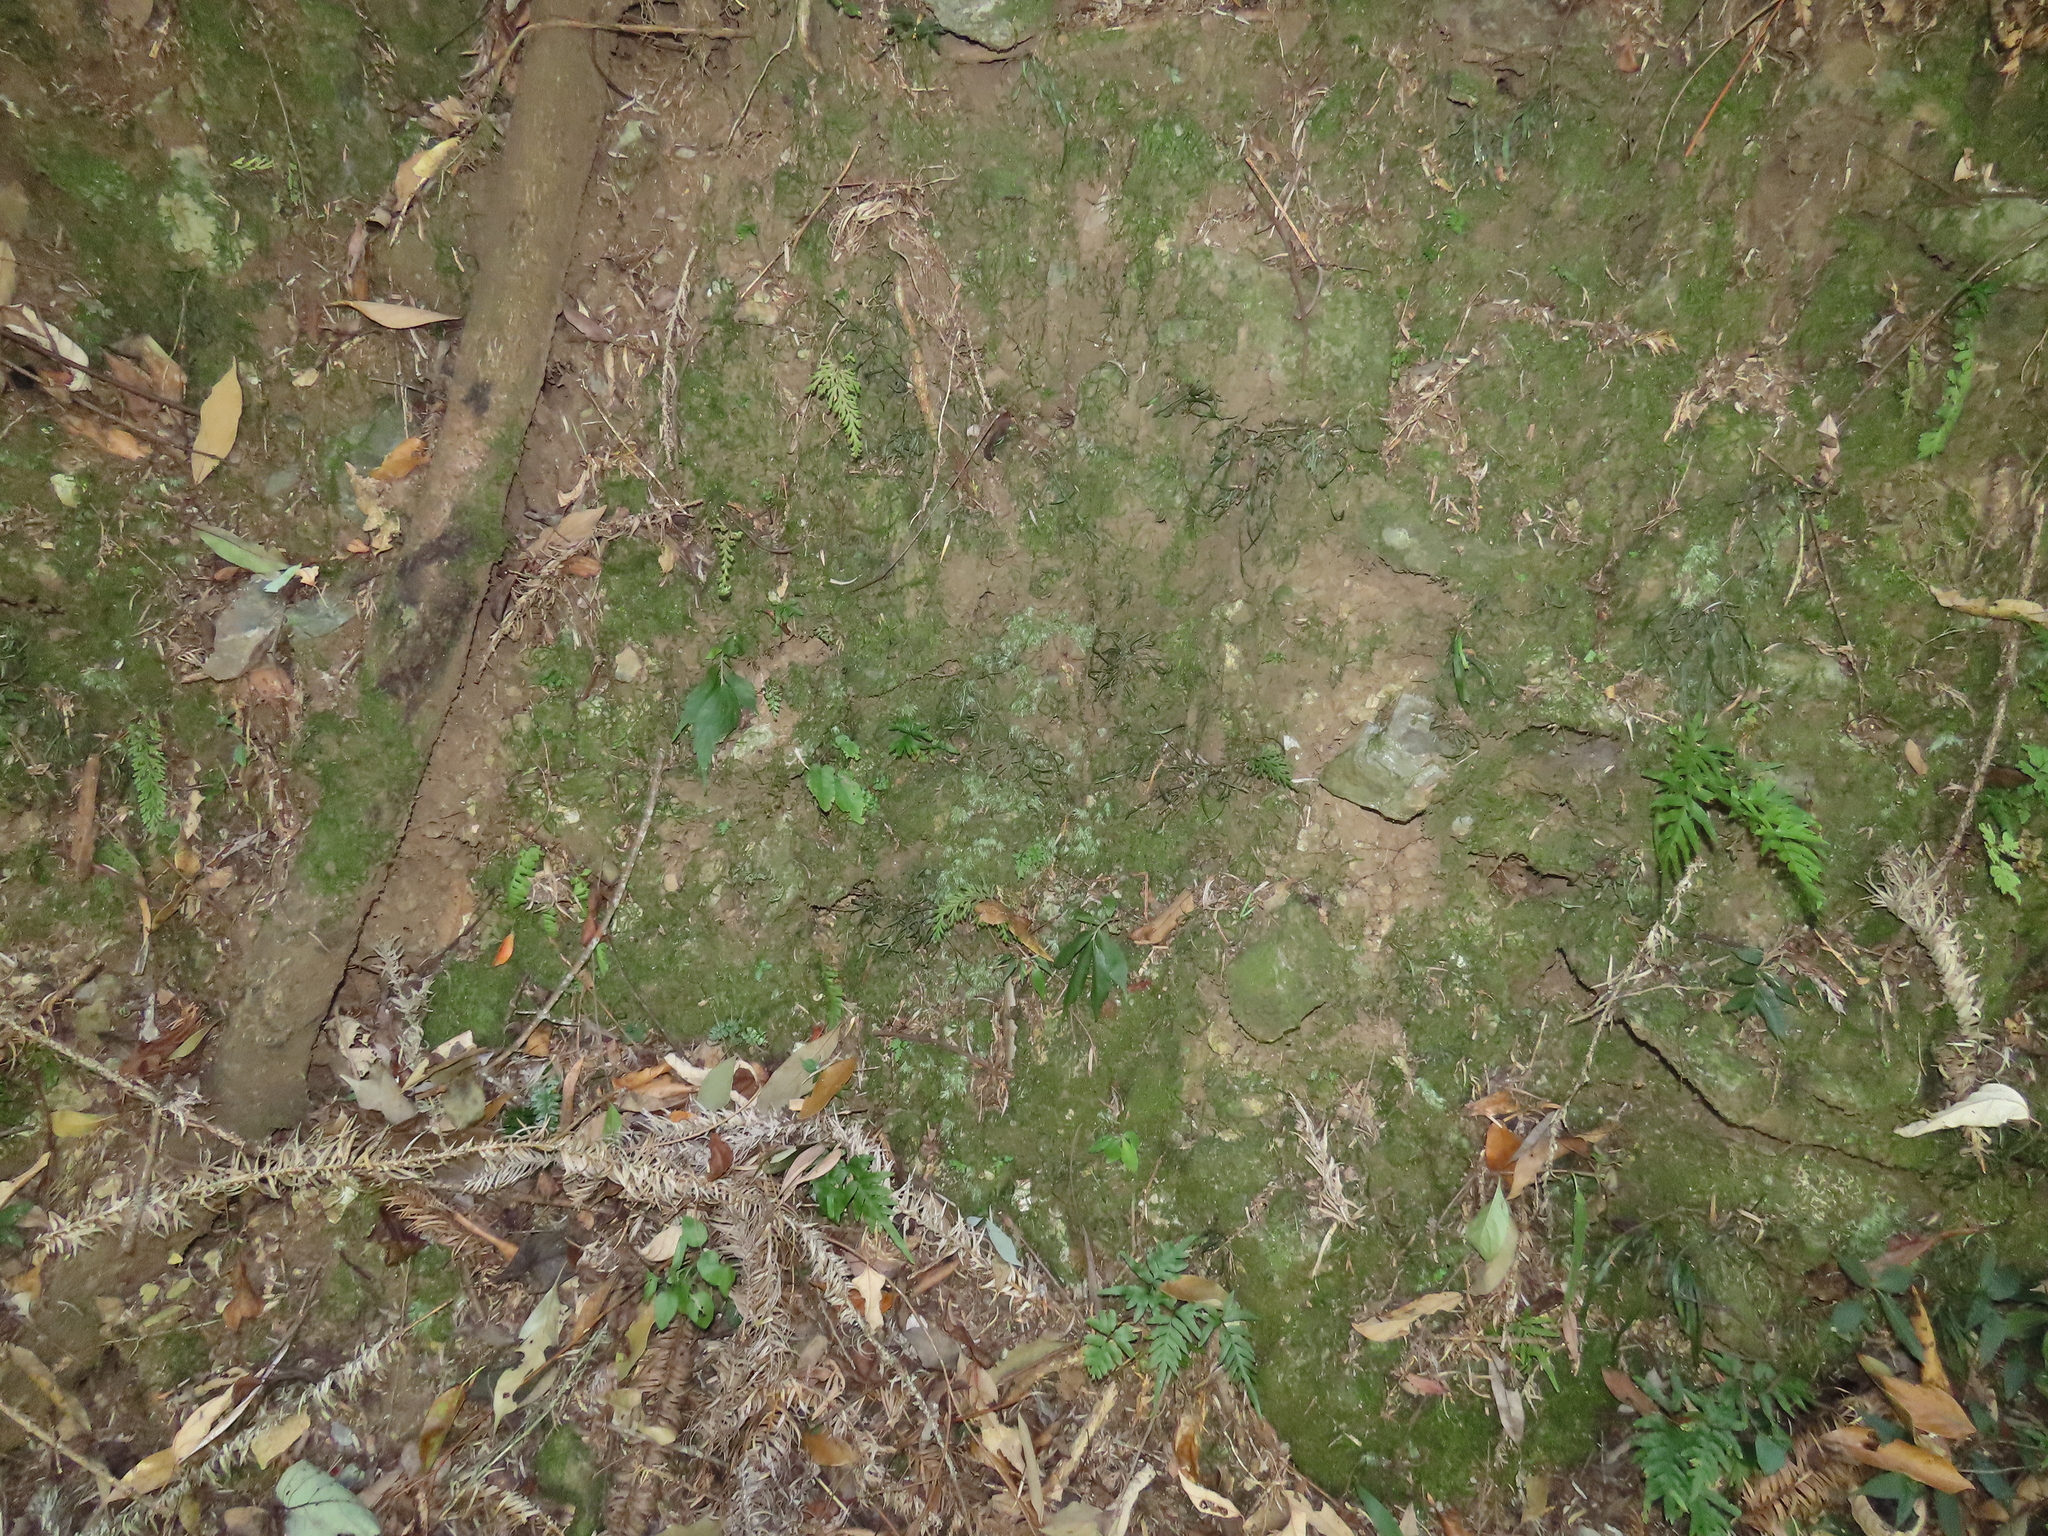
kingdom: Plantae
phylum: Tracheophyta
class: Polypodiopsida
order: Polypodiales
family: Tectariaceae
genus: Tectaria
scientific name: Tectaria zeilanica
